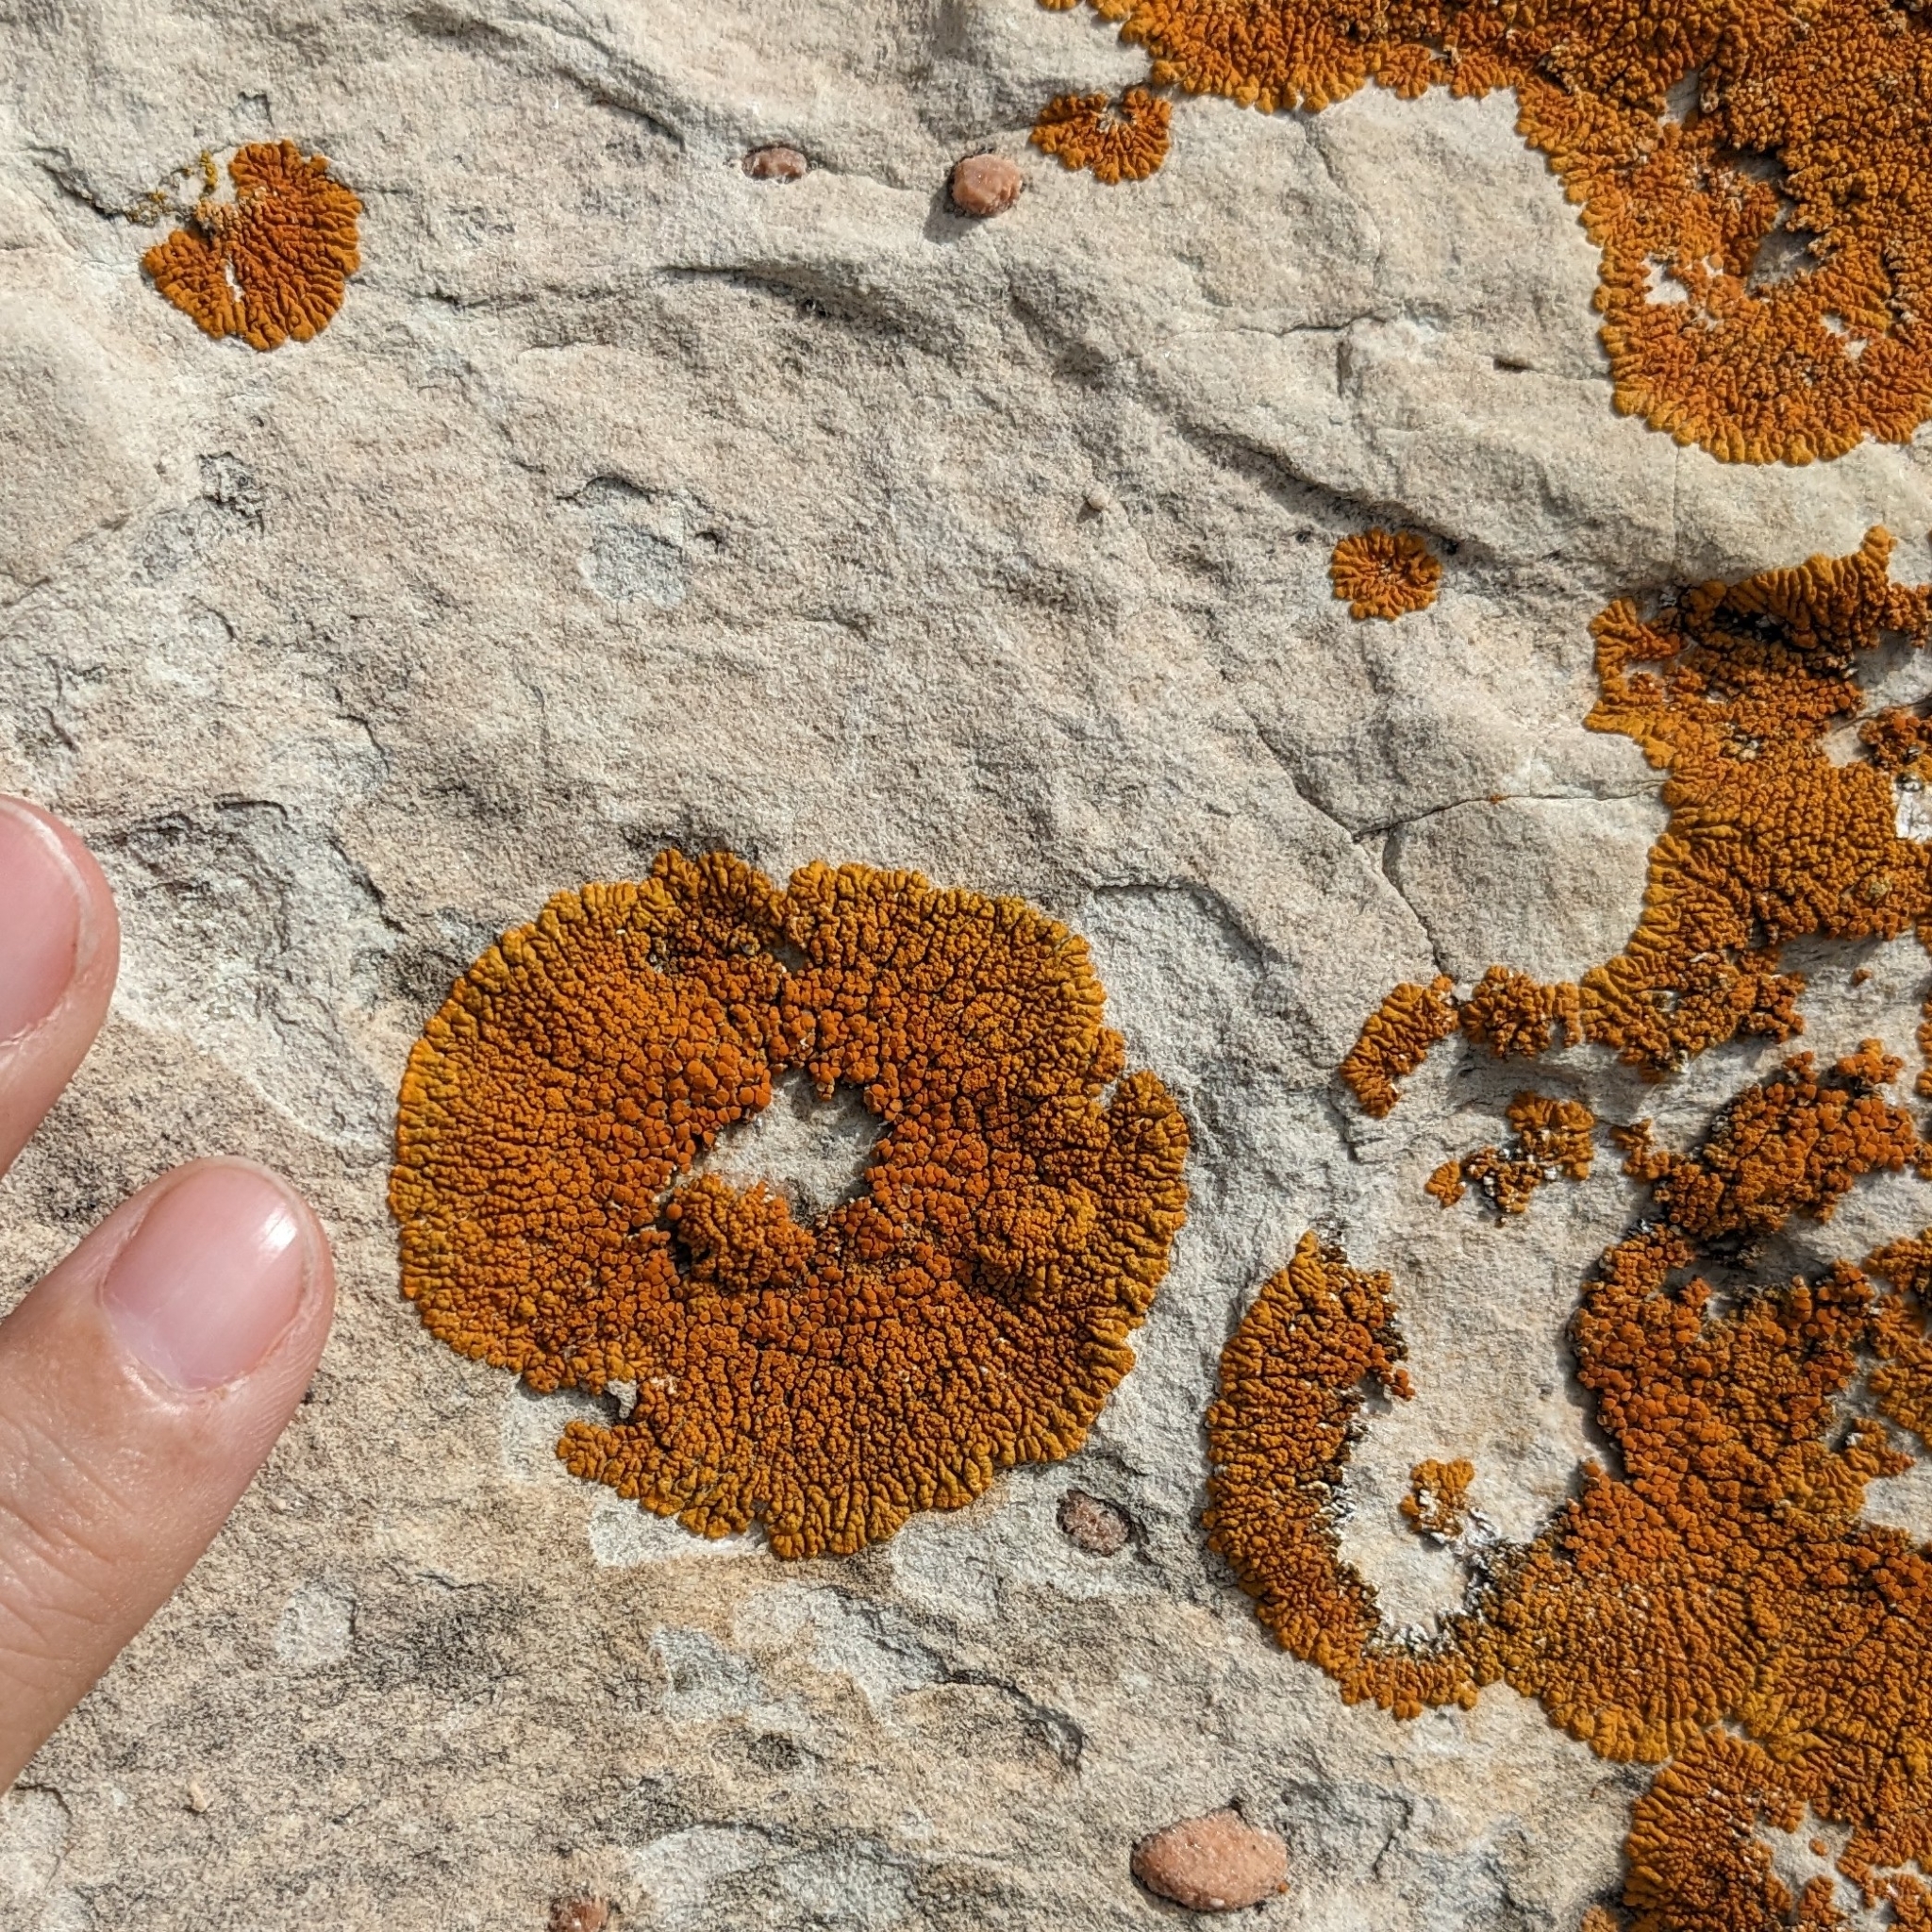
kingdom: Fungi
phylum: Ascomycota
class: Lecanoromycetes
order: Teloschistales
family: Teloschistaceae
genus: Xanthoria
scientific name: Xanthoria elegans
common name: Elegant sunburst lichen
